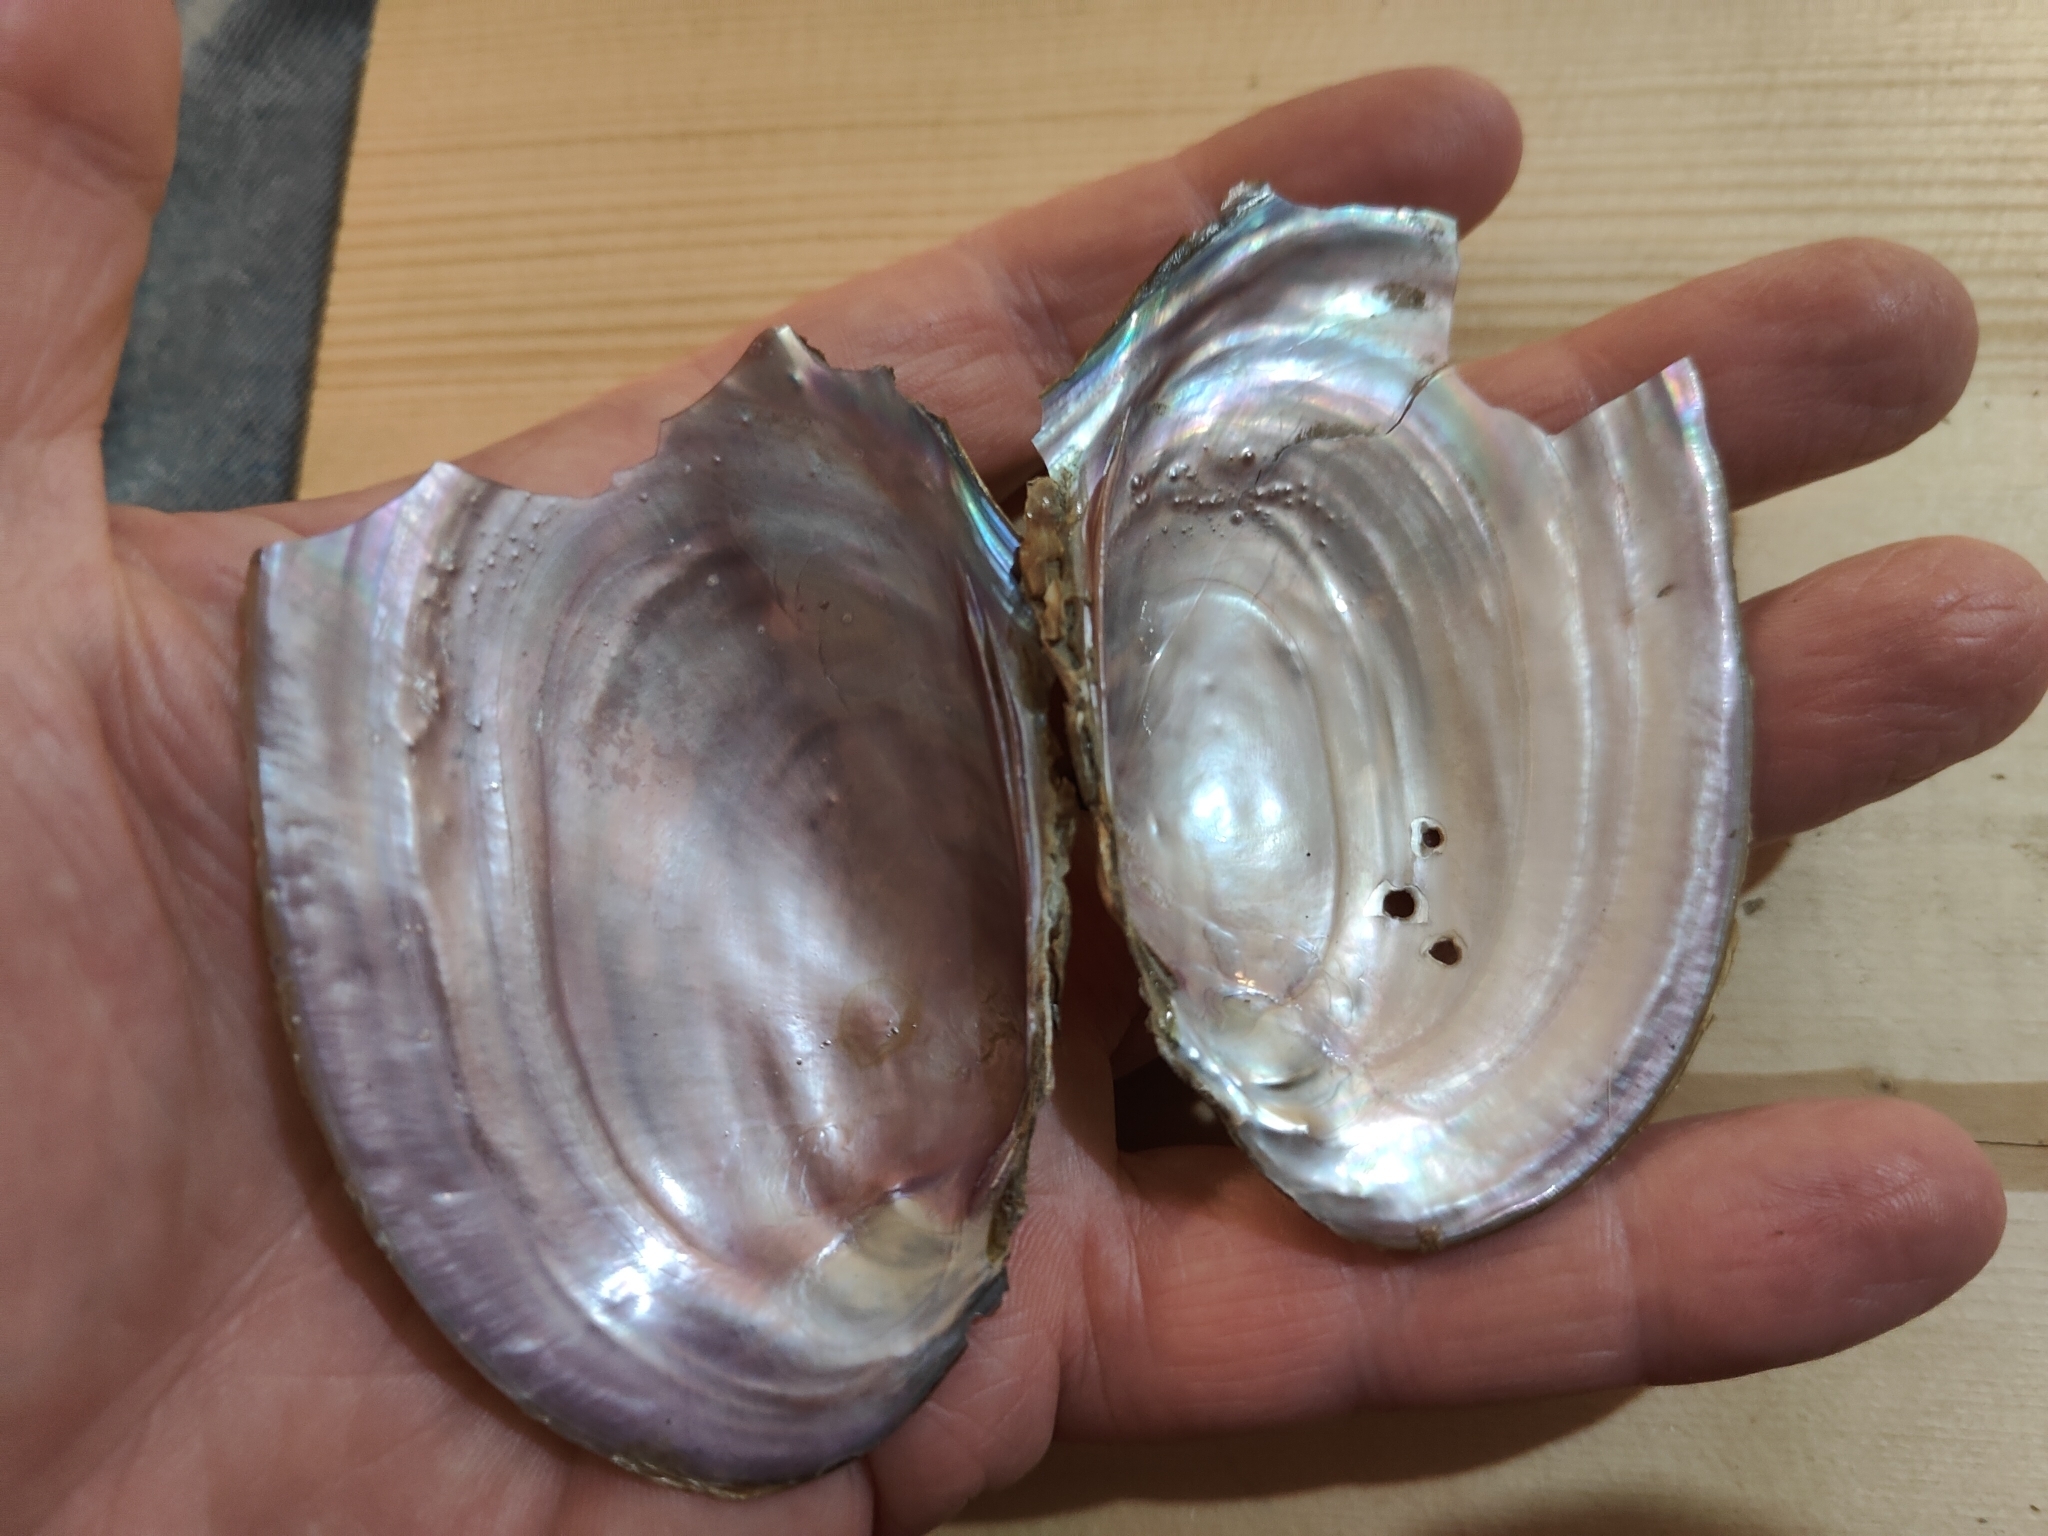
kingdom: Animalia
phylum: Mollusca
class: Bivalvia
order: Unionida
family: Unionidae
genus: Potamilus
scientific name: Potamilus ohiensis
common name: Pink papershell
